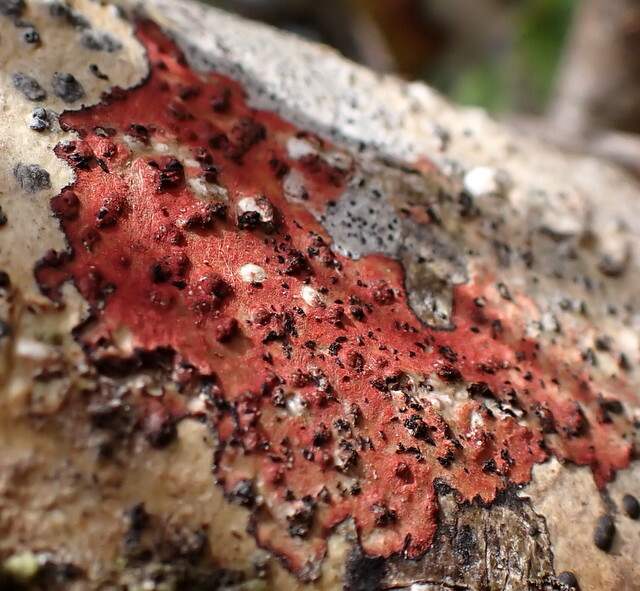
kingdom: Fungi
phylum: Ascomycota
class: Eurotiomycetes
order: Pyrenulales
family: Pyrenulaceae
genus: Pyrenula
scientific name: Pyrenula cruenta
